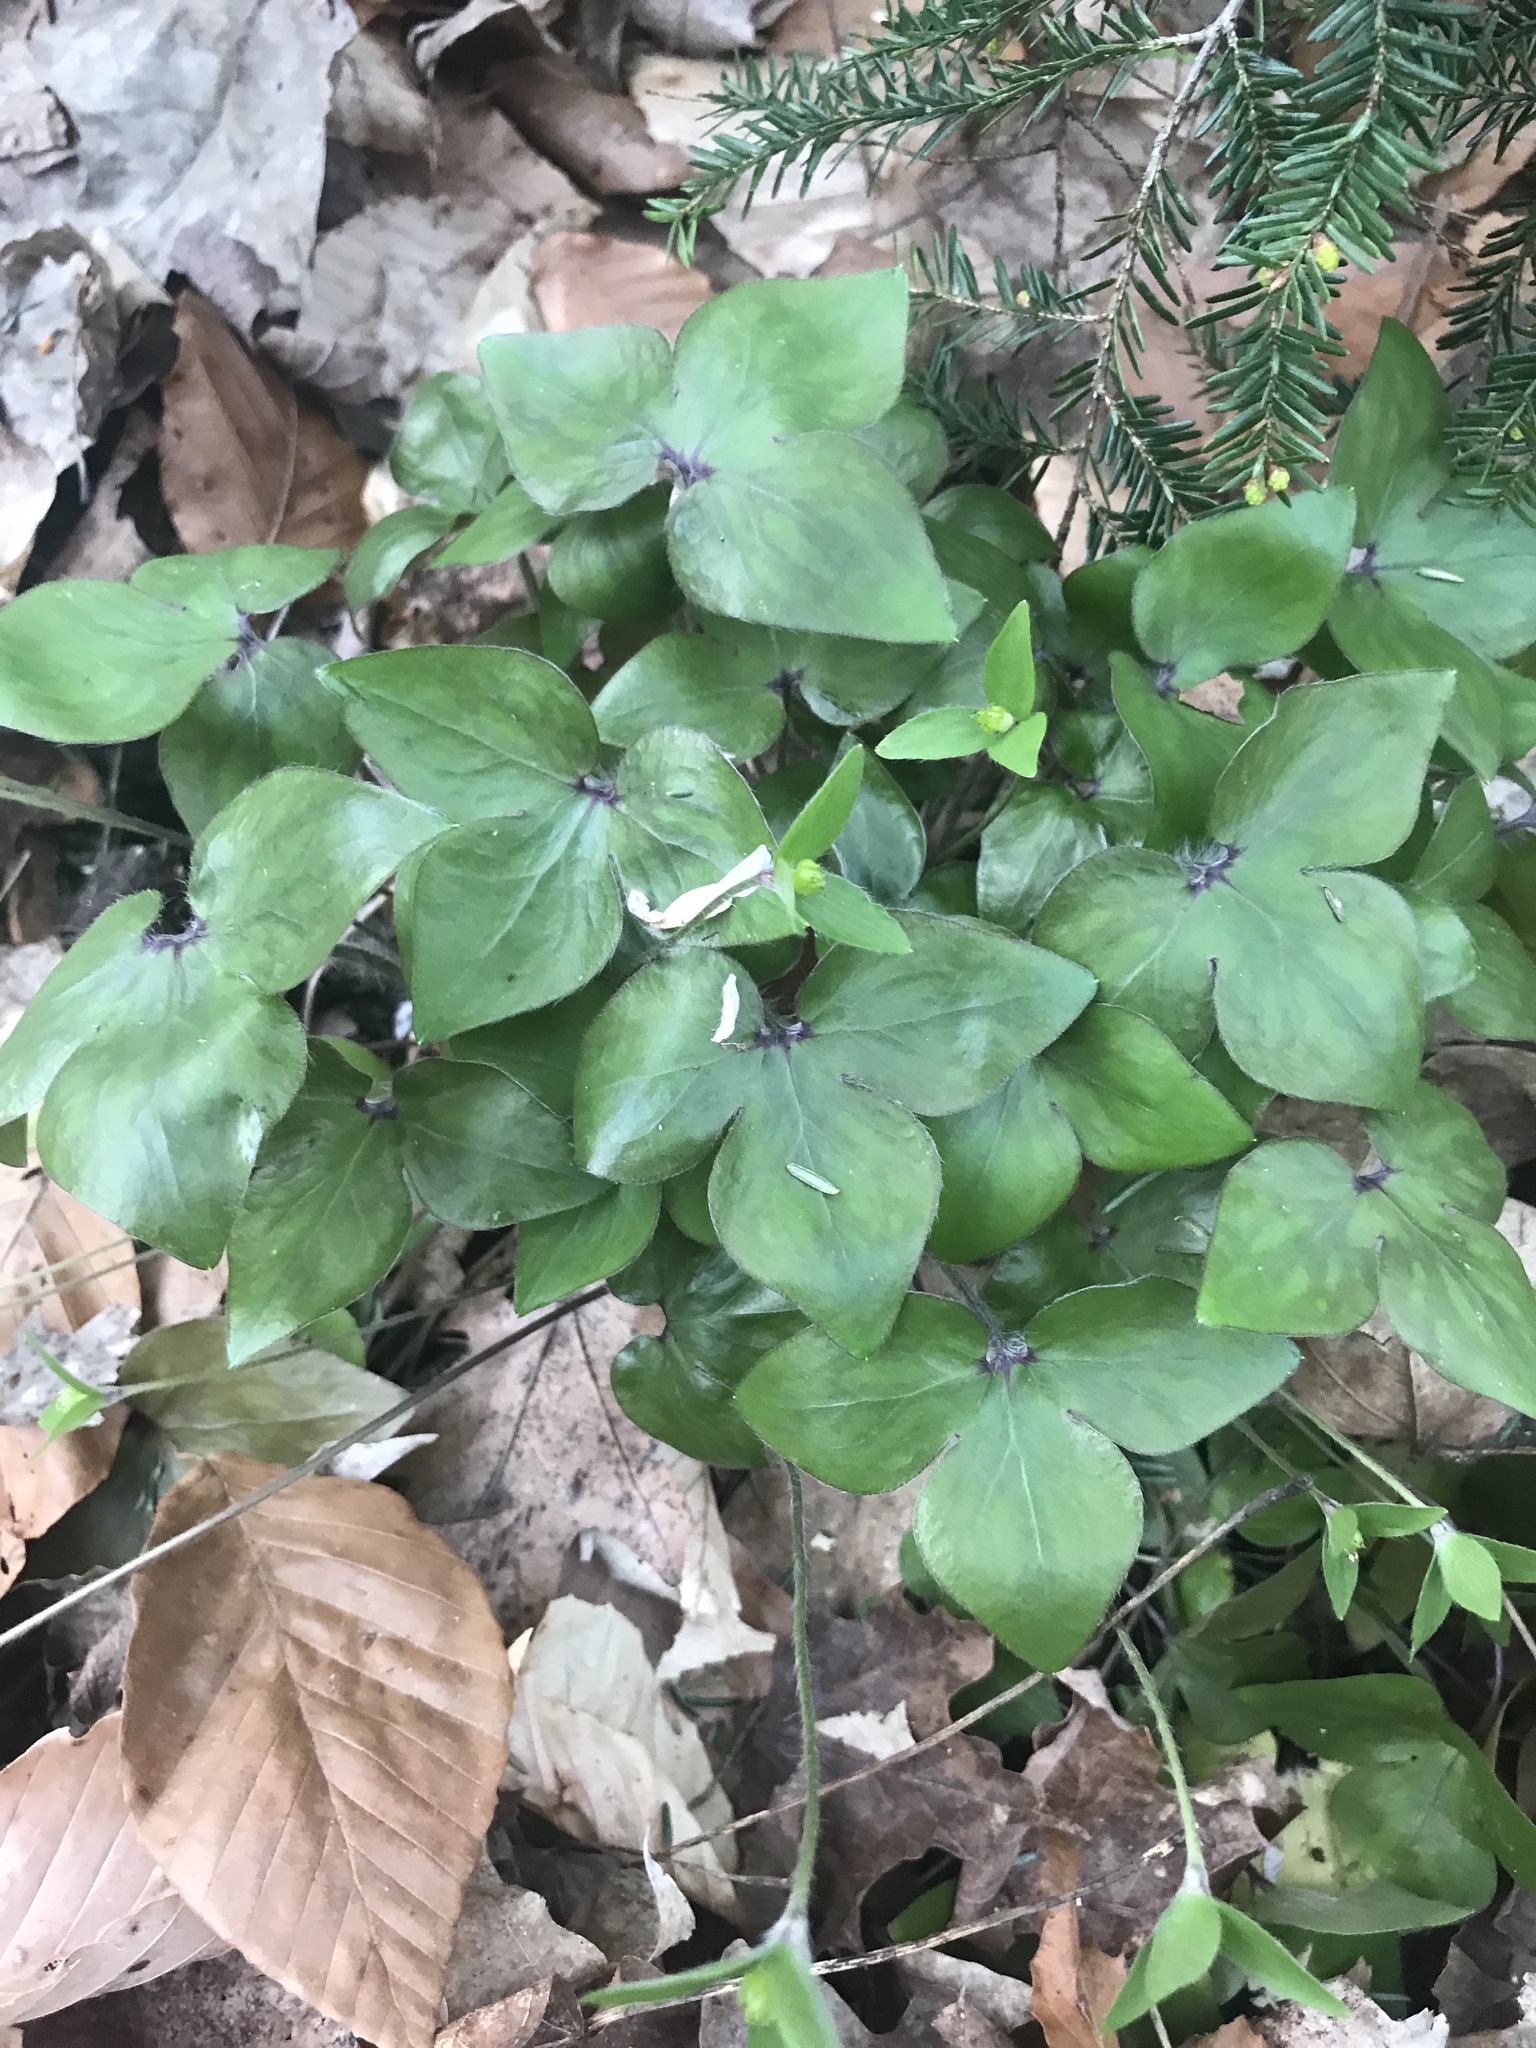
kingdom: Plantae
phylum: Tracheophyta
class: Magnoliopsida
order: Ranunculales
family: Ranunculaceae
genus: Hepatica
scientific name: Hepatica acutiloba
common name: Sharp-lobed hepatica
